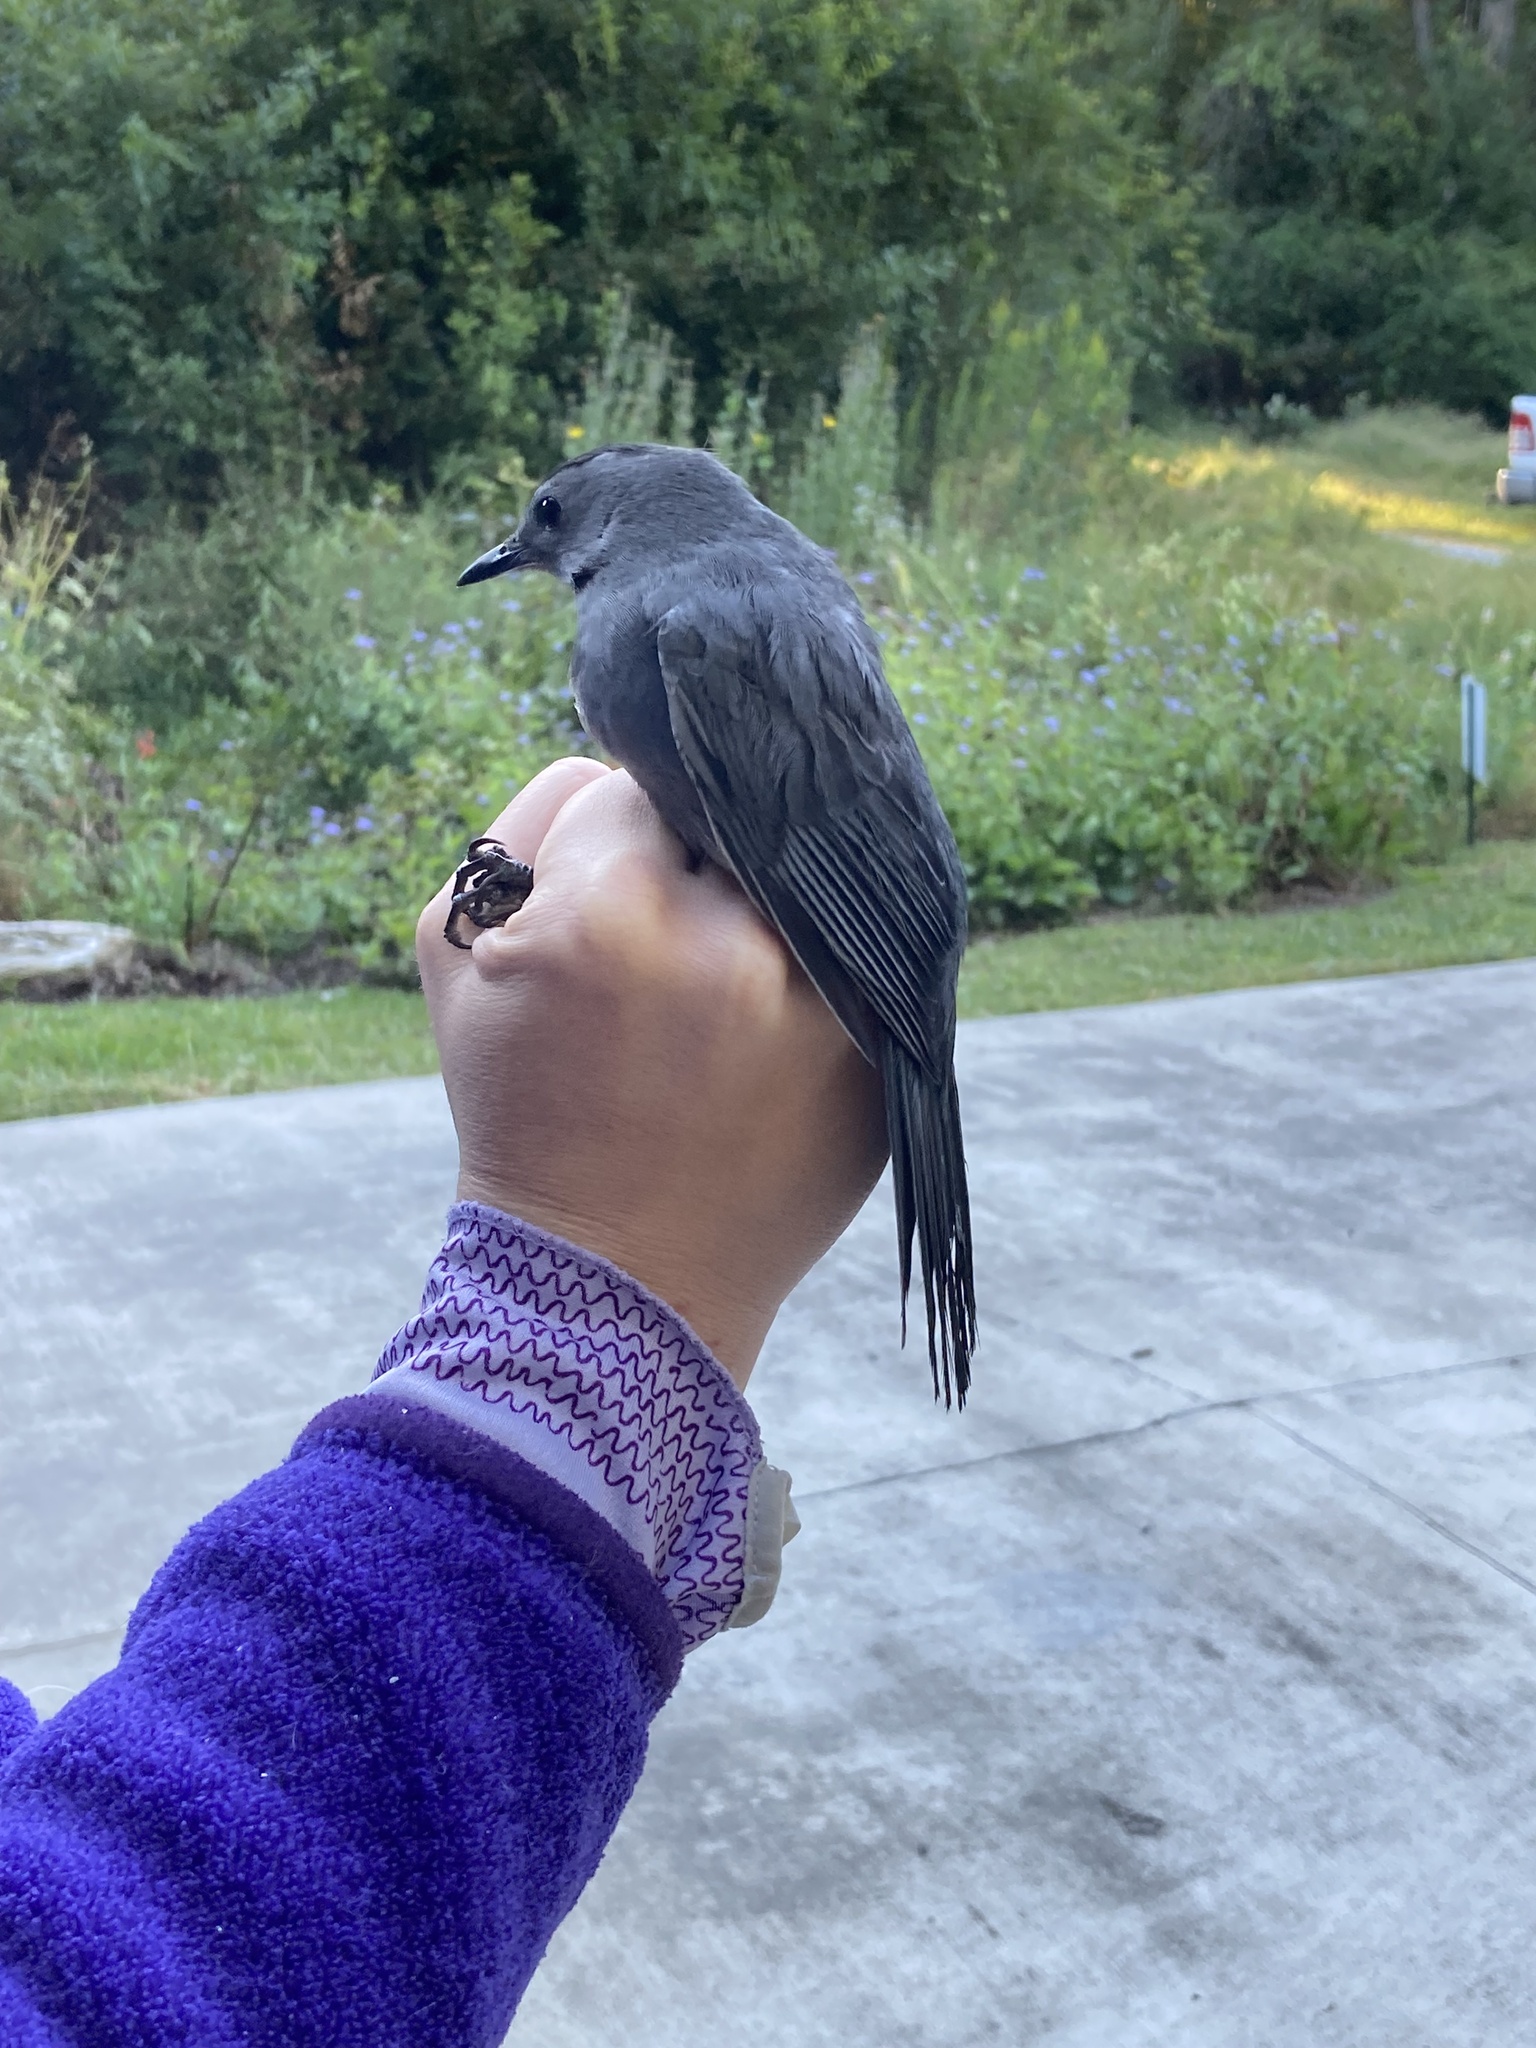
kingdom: Animalia
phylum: Chordata
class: Aves
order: Passeriformes
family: Mimidae
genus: Dumetella
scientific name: Dumetella carolinensis
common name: Gray catbird
